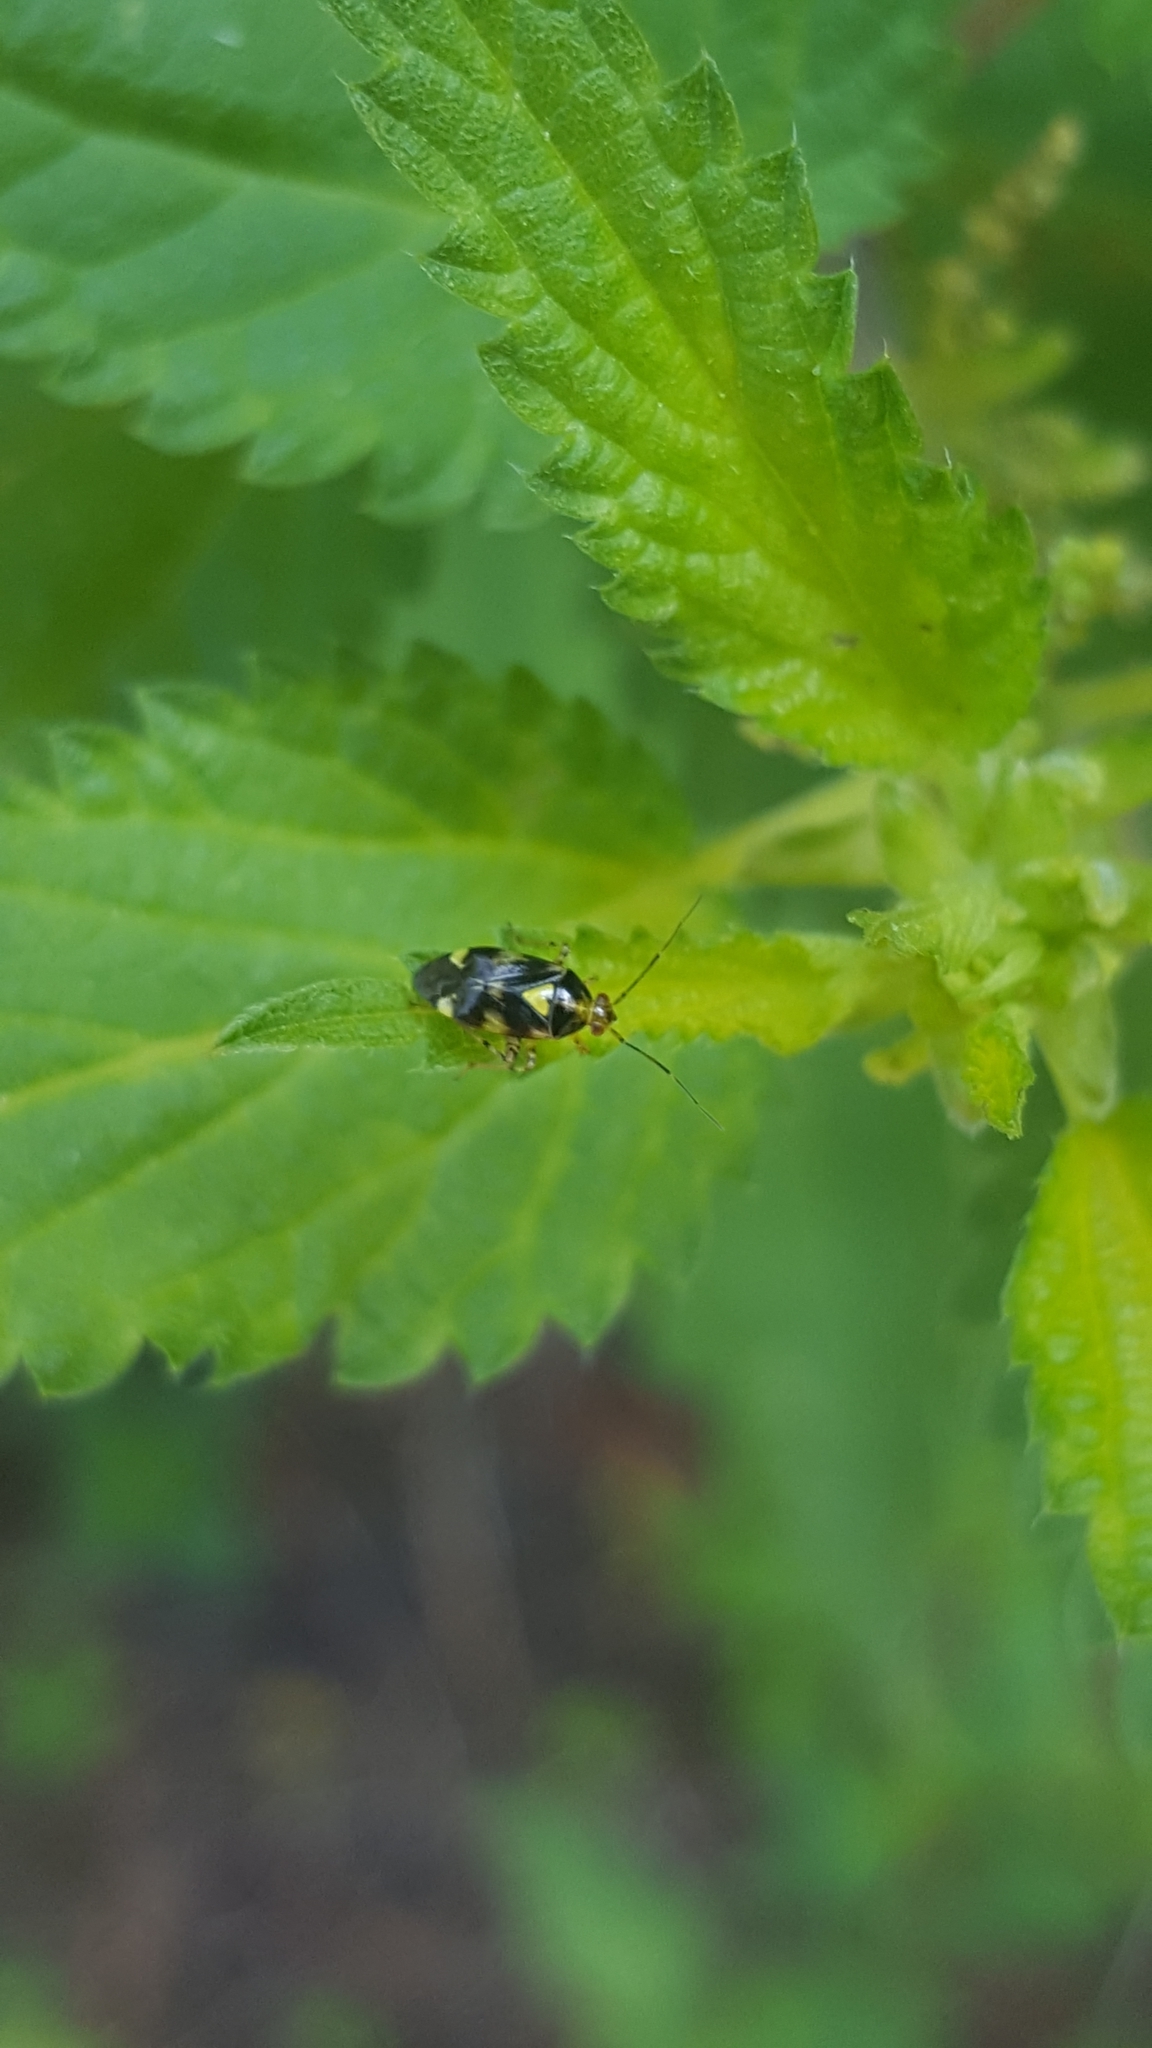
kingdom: Animalia
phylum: Arthropoda
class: Insecta
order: Hemiptera
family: Miridae
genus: Liocoris
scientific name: Liocoris tripustulatus
